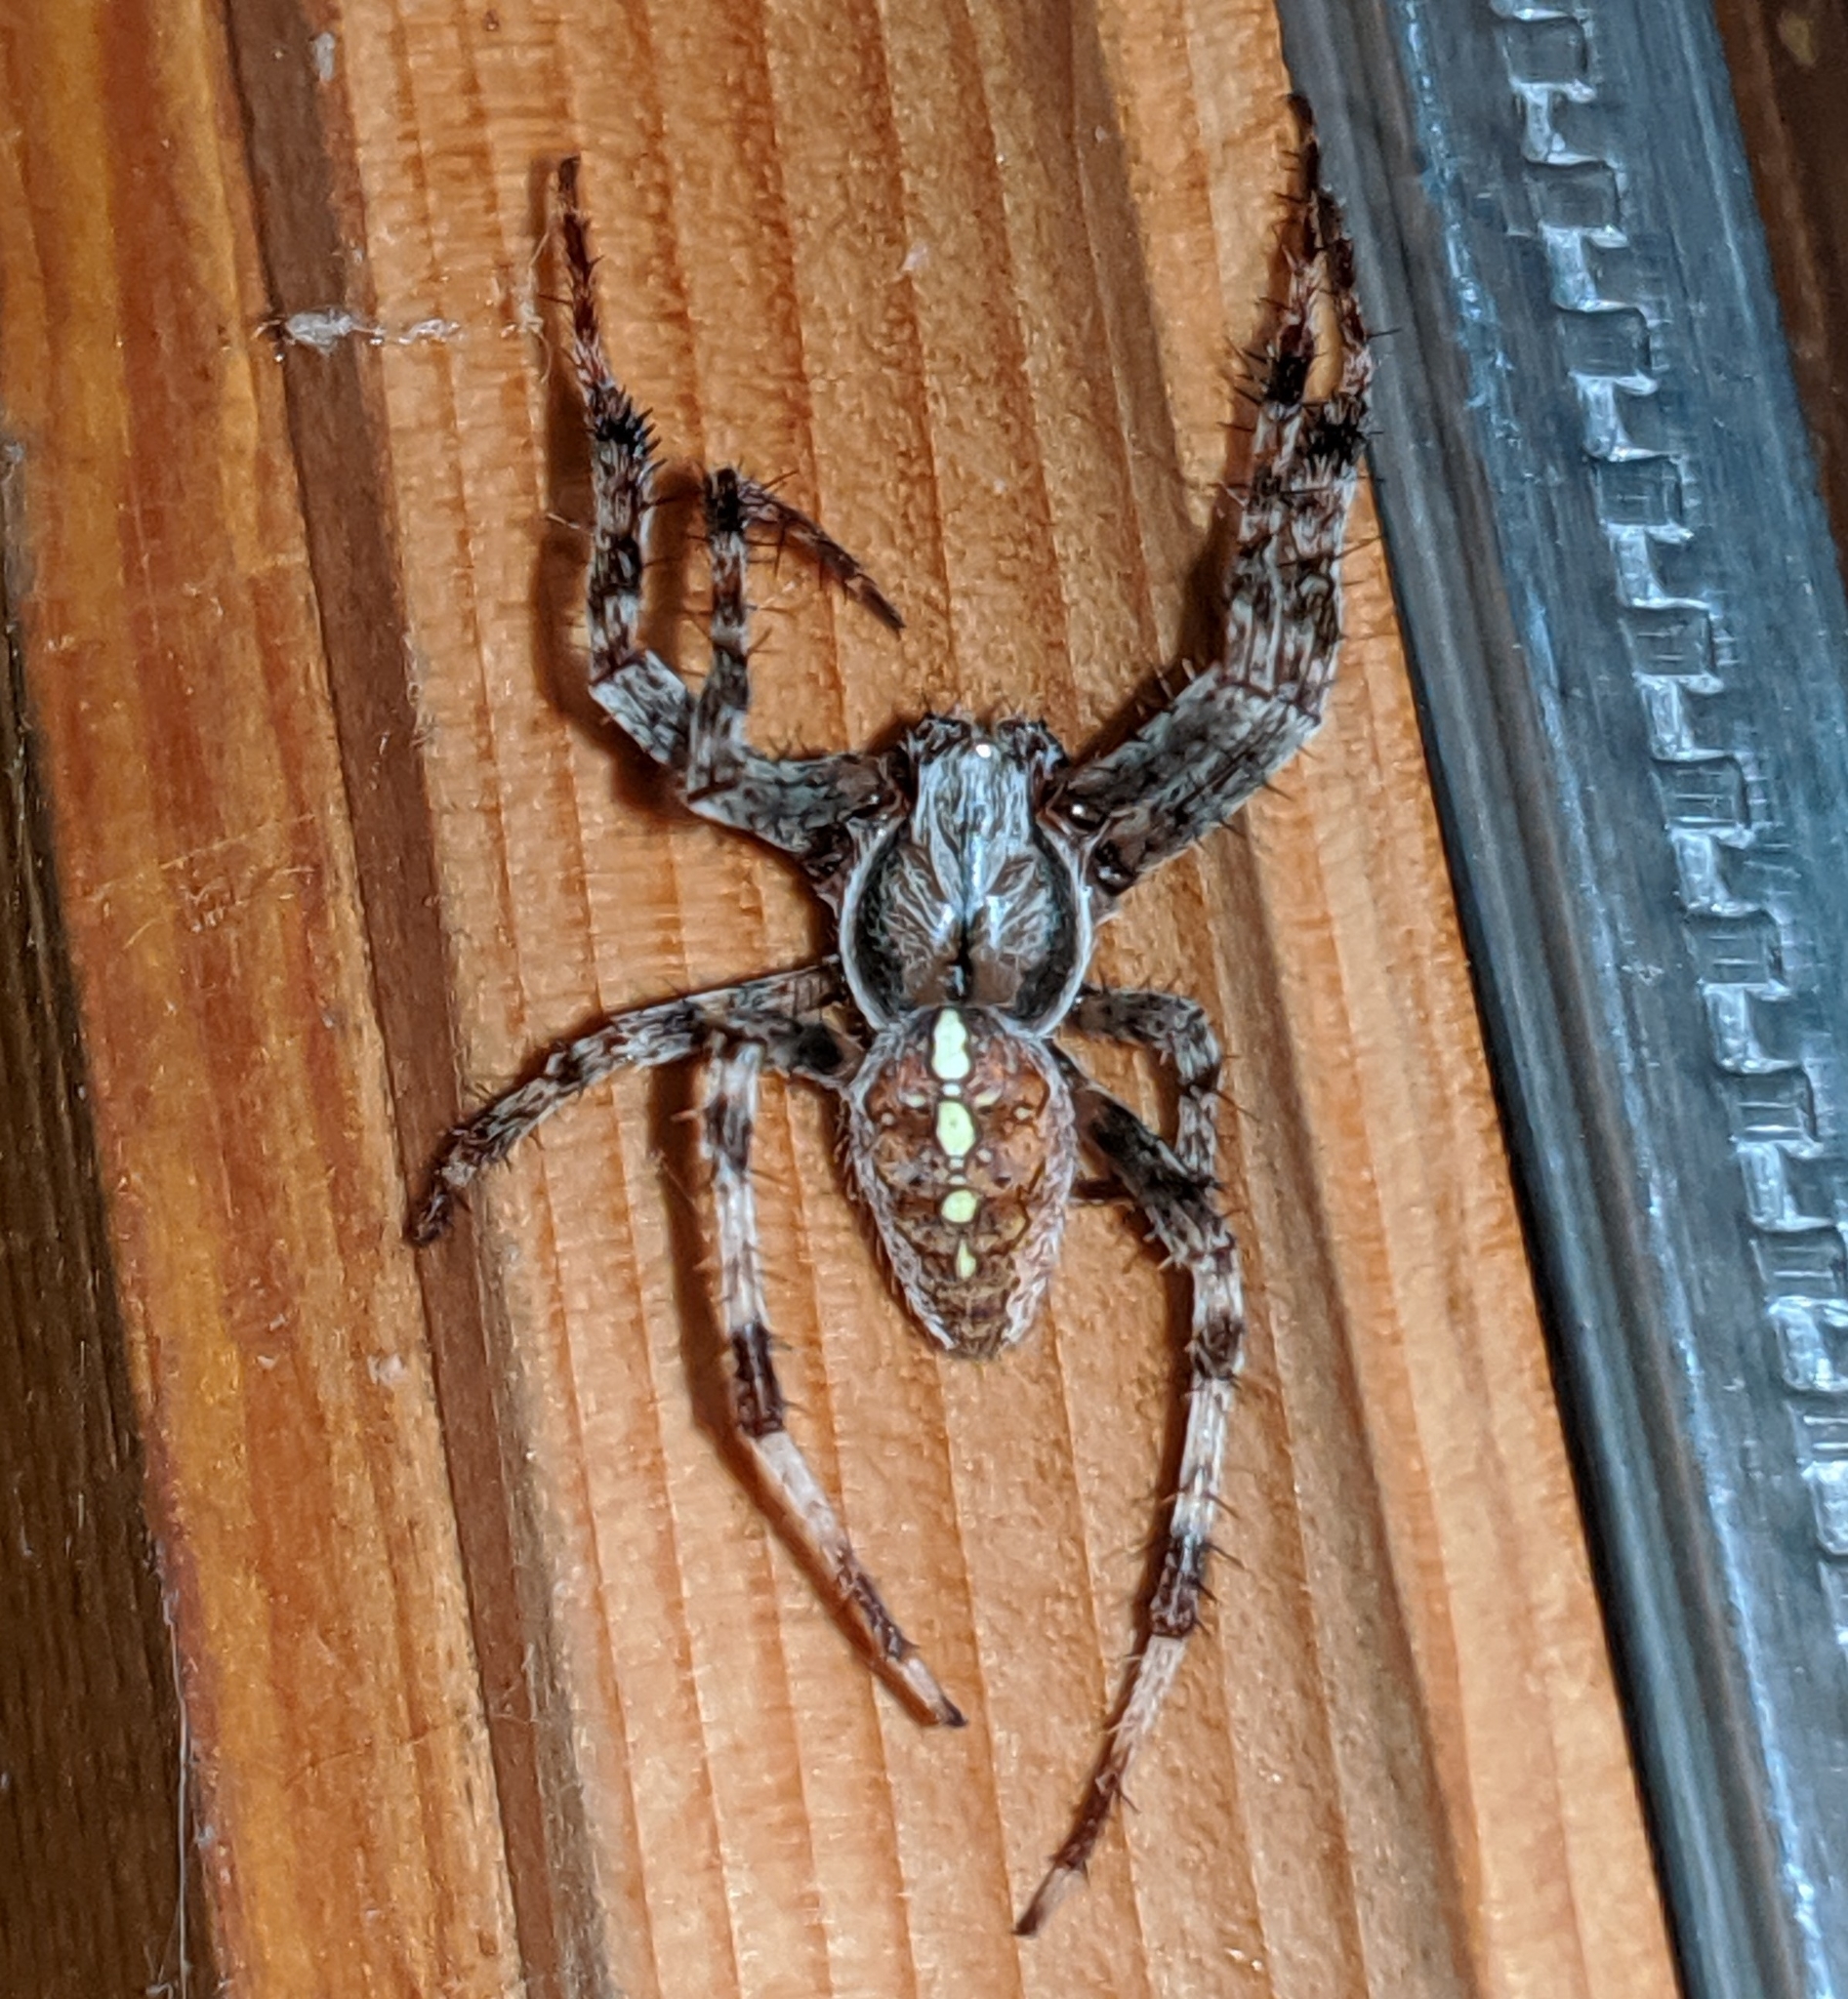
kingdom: Animalia
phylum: Arthropoda
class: Arachnida
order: Araneae
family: Araneidae
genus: Araneus
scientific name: Araneus diadematus
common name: Cross orbweaver
